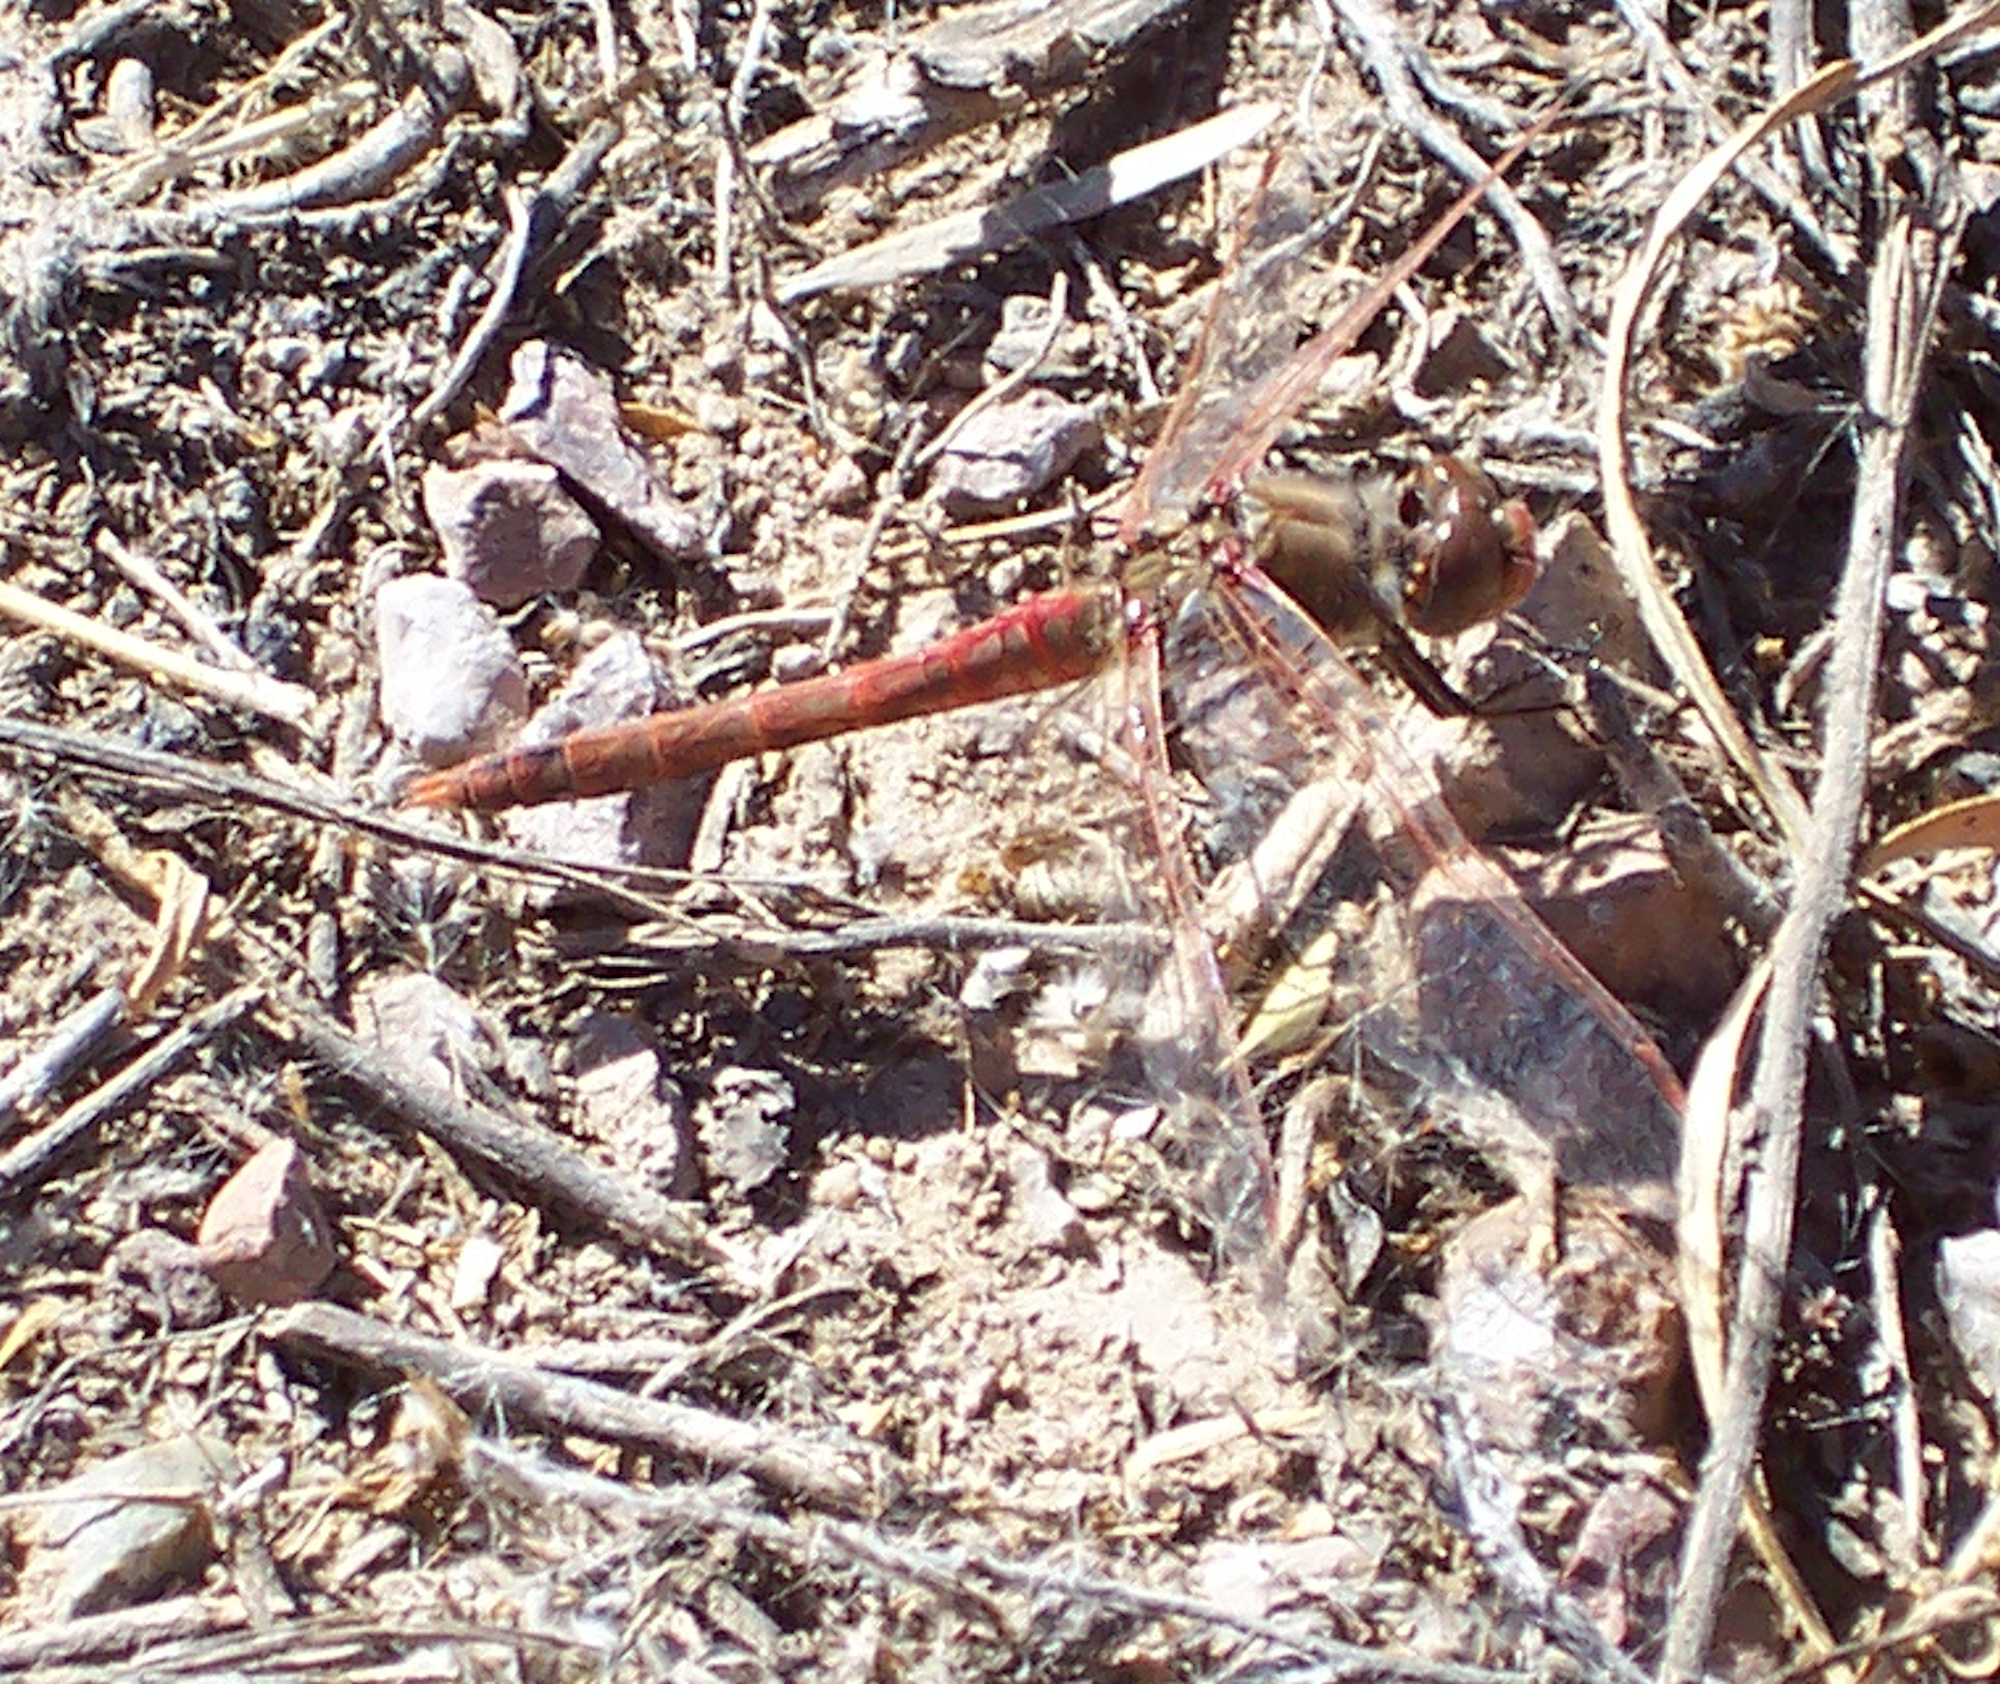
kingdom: Animalia
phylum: Arthropoda
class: Insecta
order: Odonata
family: Libellulidae
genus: Sympetrum
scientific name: Sympetrum corruptum
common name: Variegated meadowhawk
